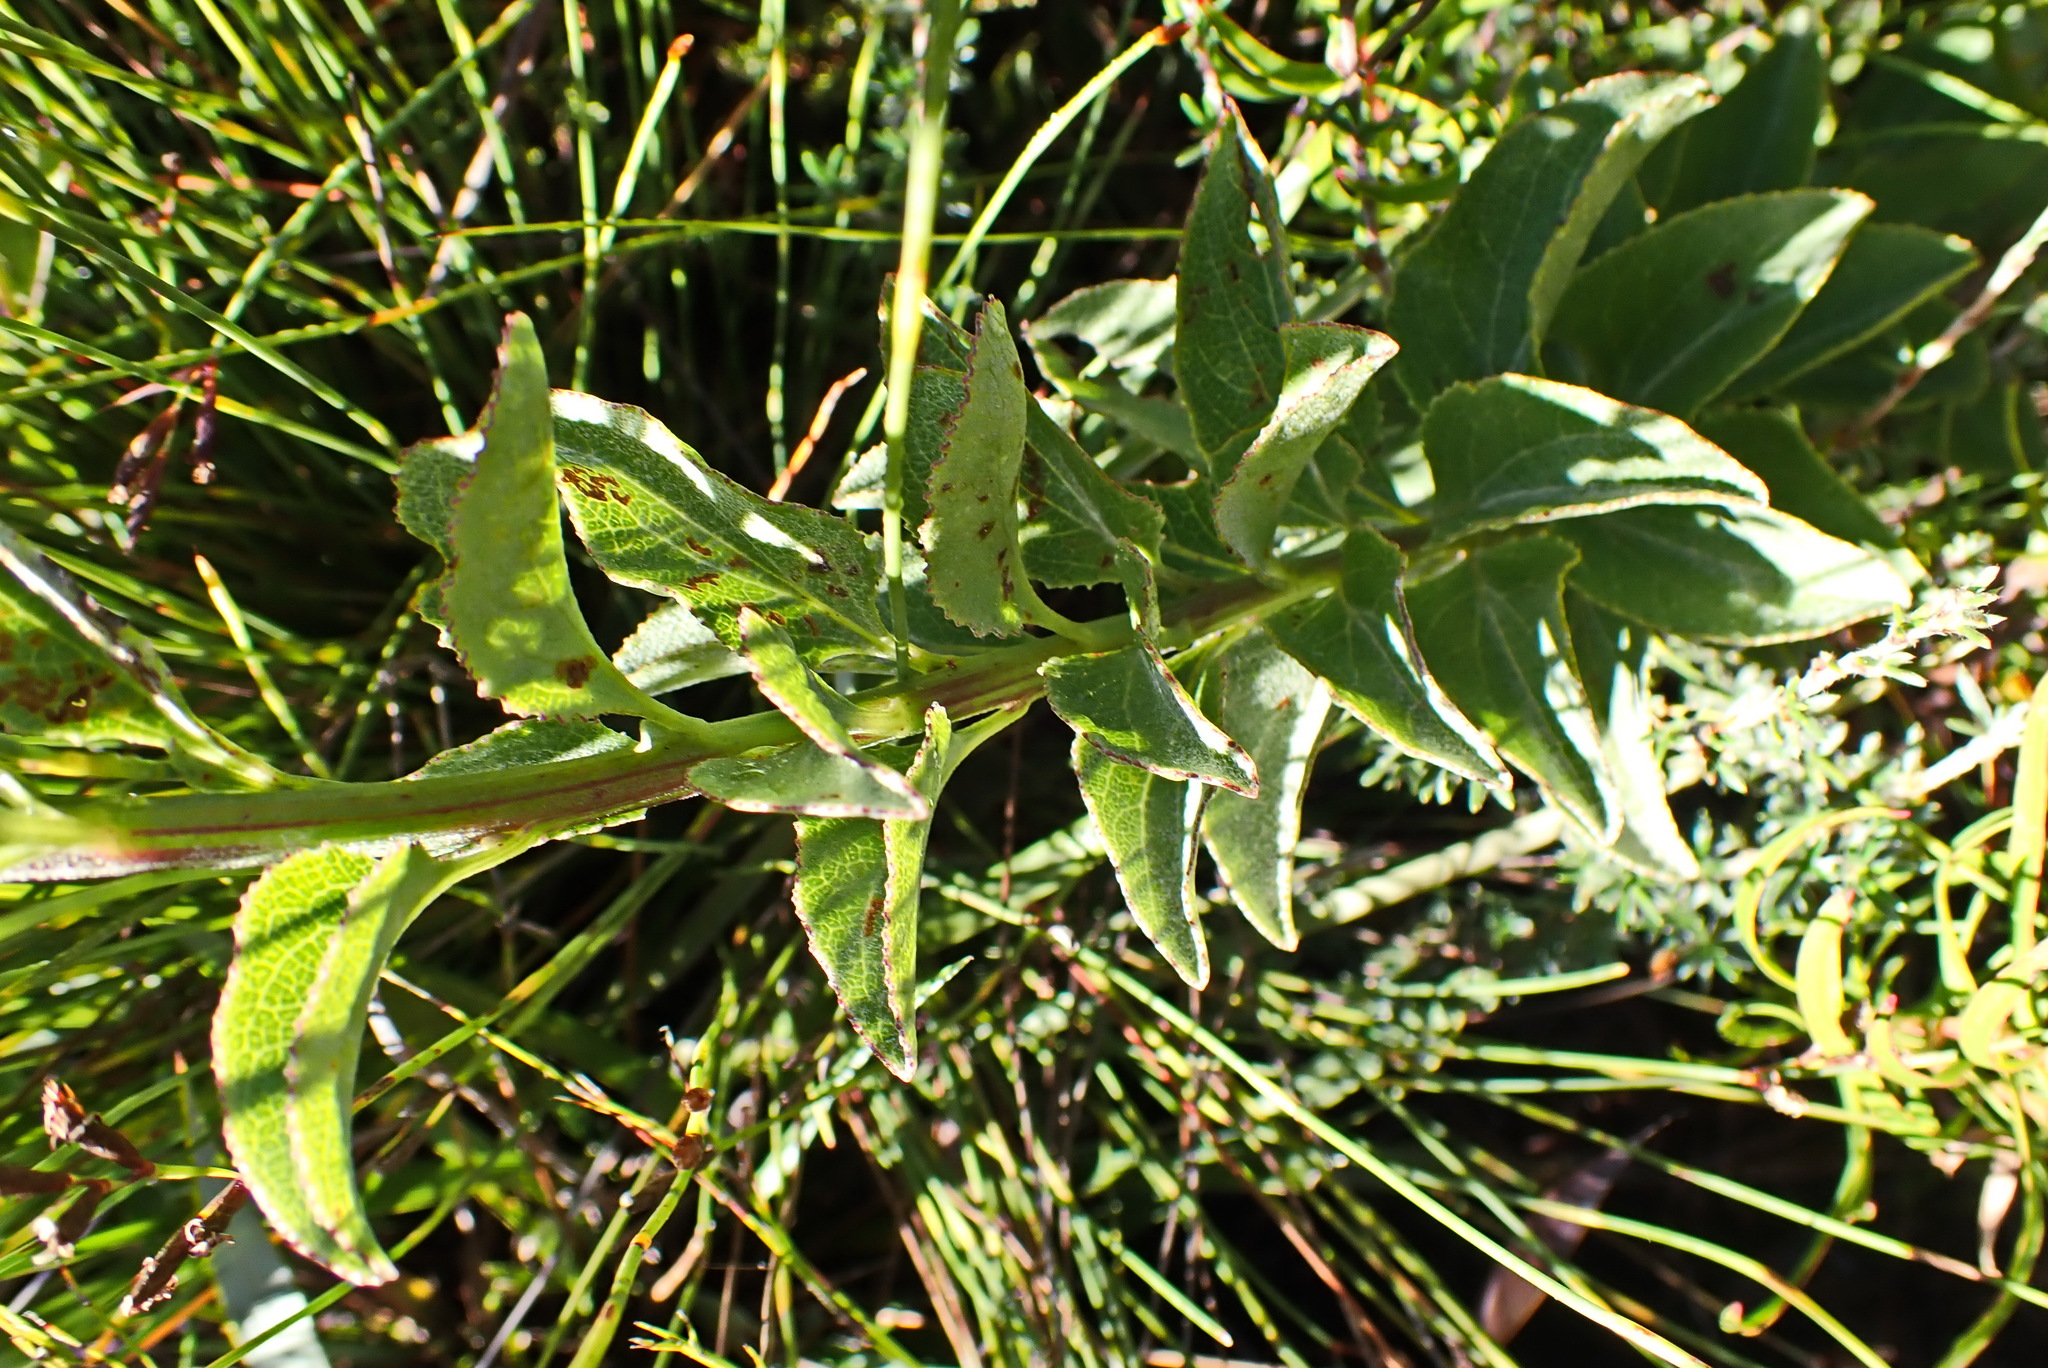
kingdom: Plantae
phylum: Tracheophyta
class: Magnoliopsida
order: Asterales
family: Asteraceae
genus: Senecio
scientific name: Senecio crenatus
